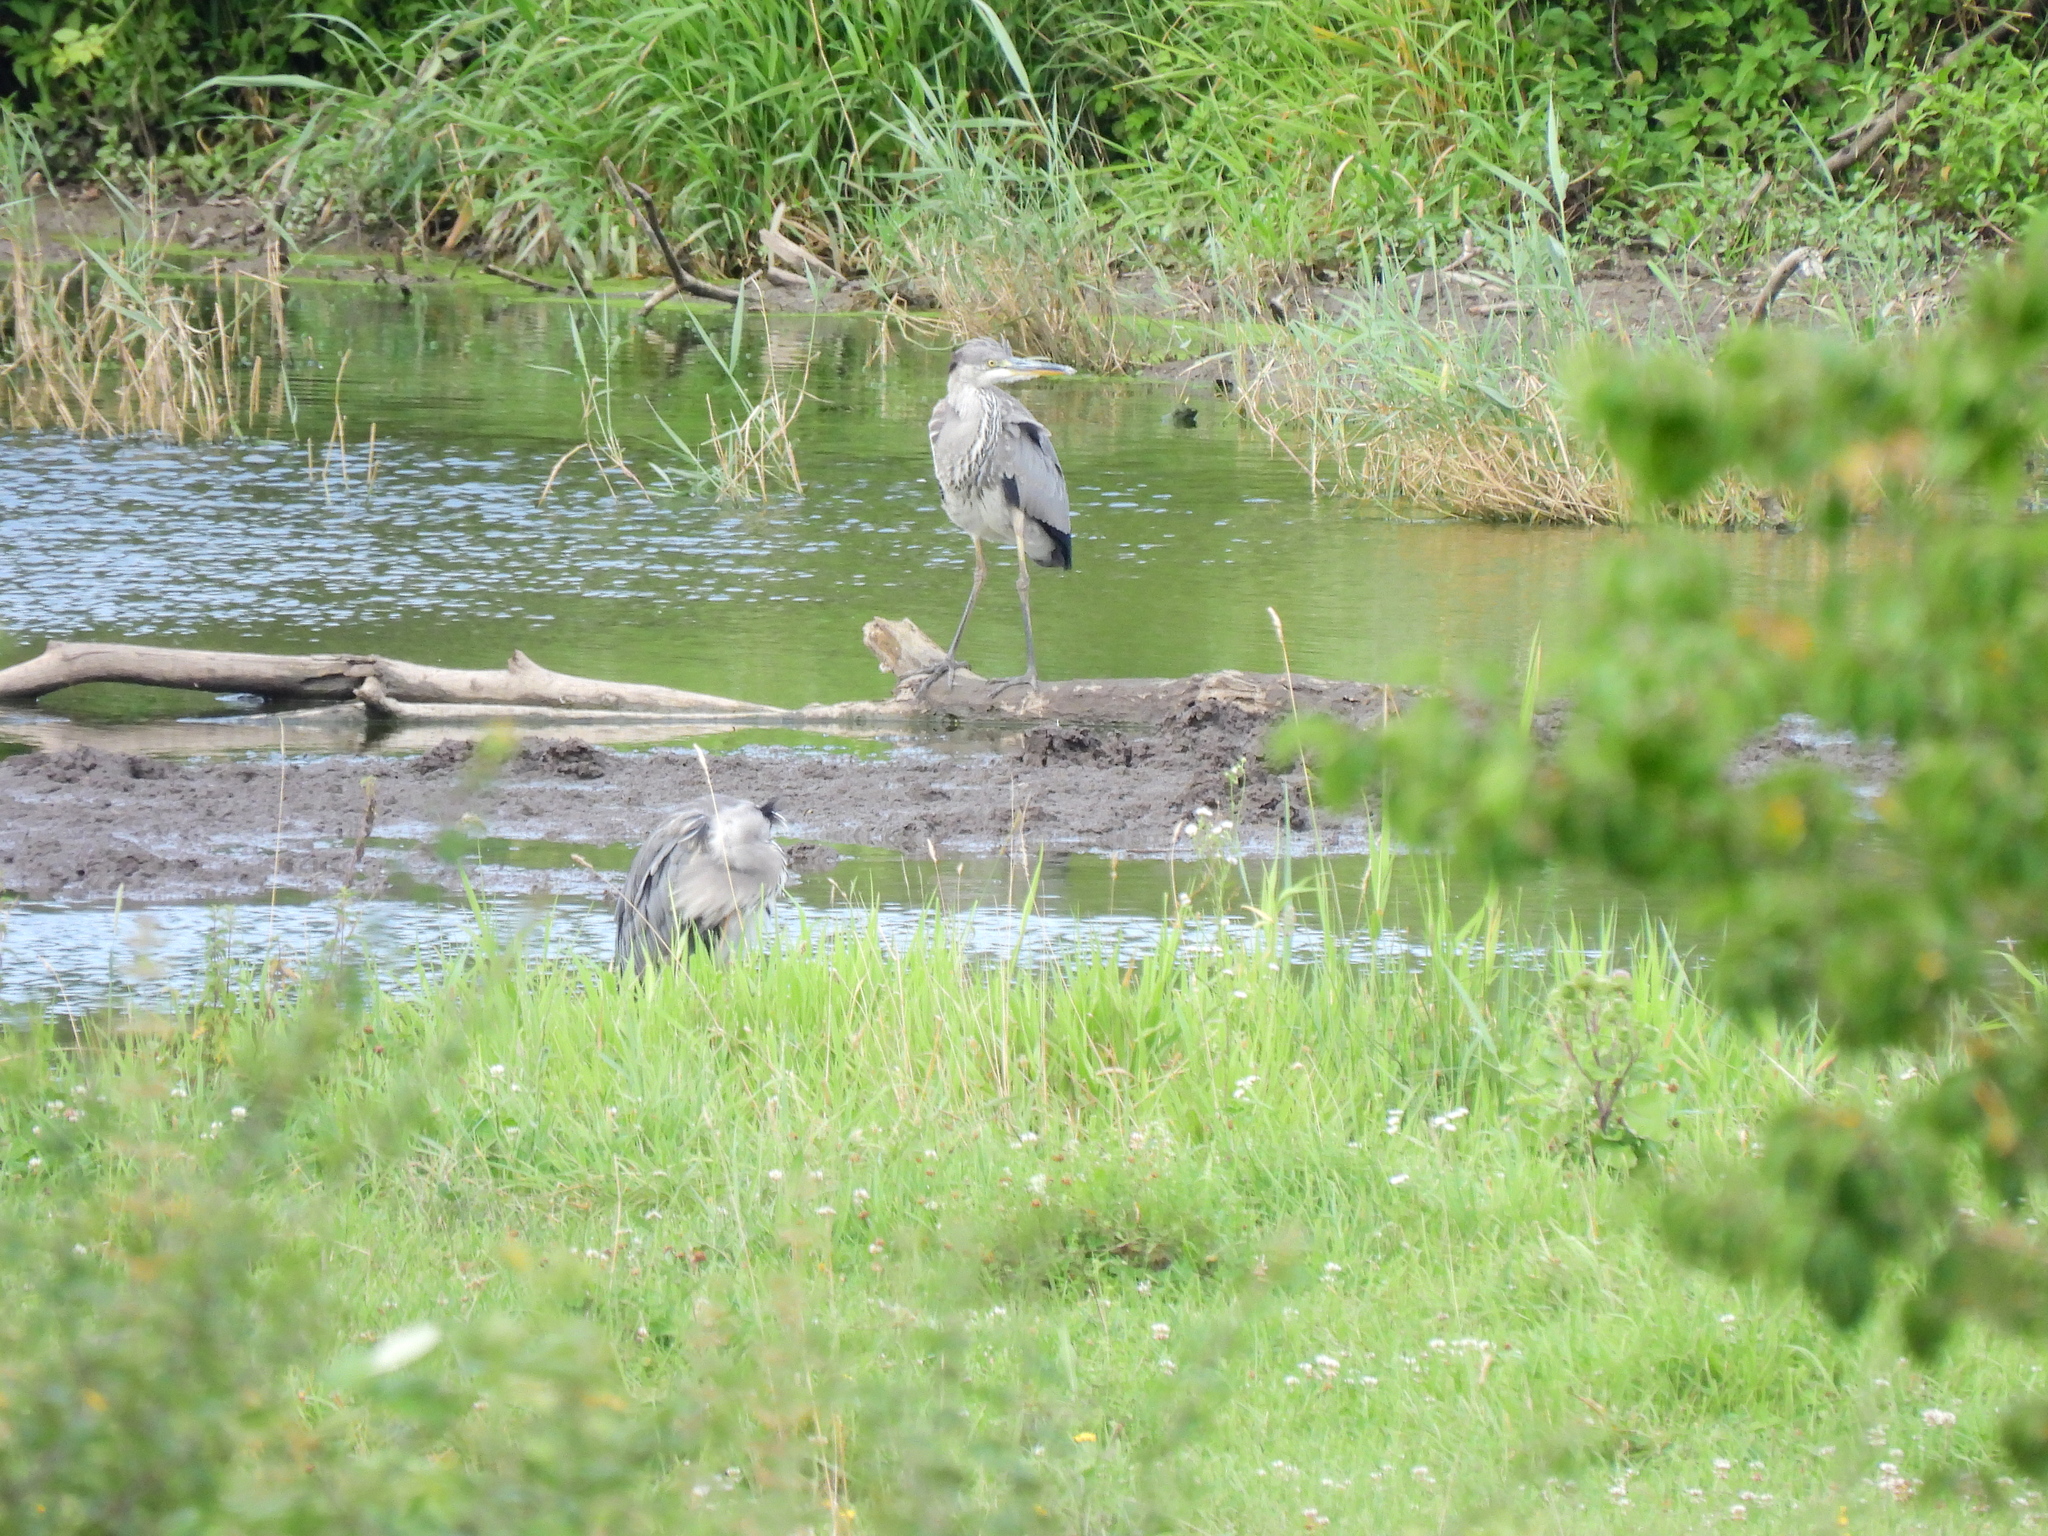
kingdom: Animalia
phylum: Chordata
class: Aves
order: Pelecaniformes
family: Ardeidae
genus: Ardea
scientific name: Ardea cinerea
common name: Grey heron
